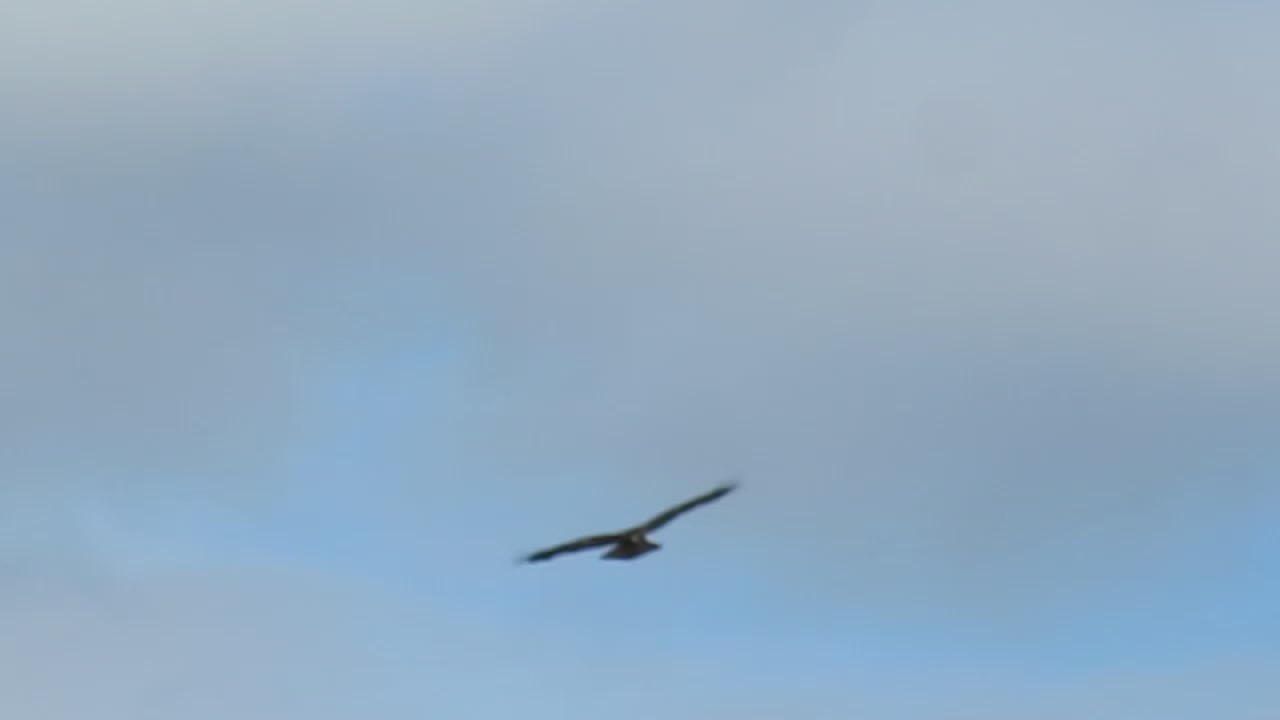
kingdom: Animalia
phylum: Chordata
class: Aves
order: Accipitriformes
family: Accipitridae
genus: Buteo
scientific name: Buteo jamaicensis
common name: Red-tailed hawk
